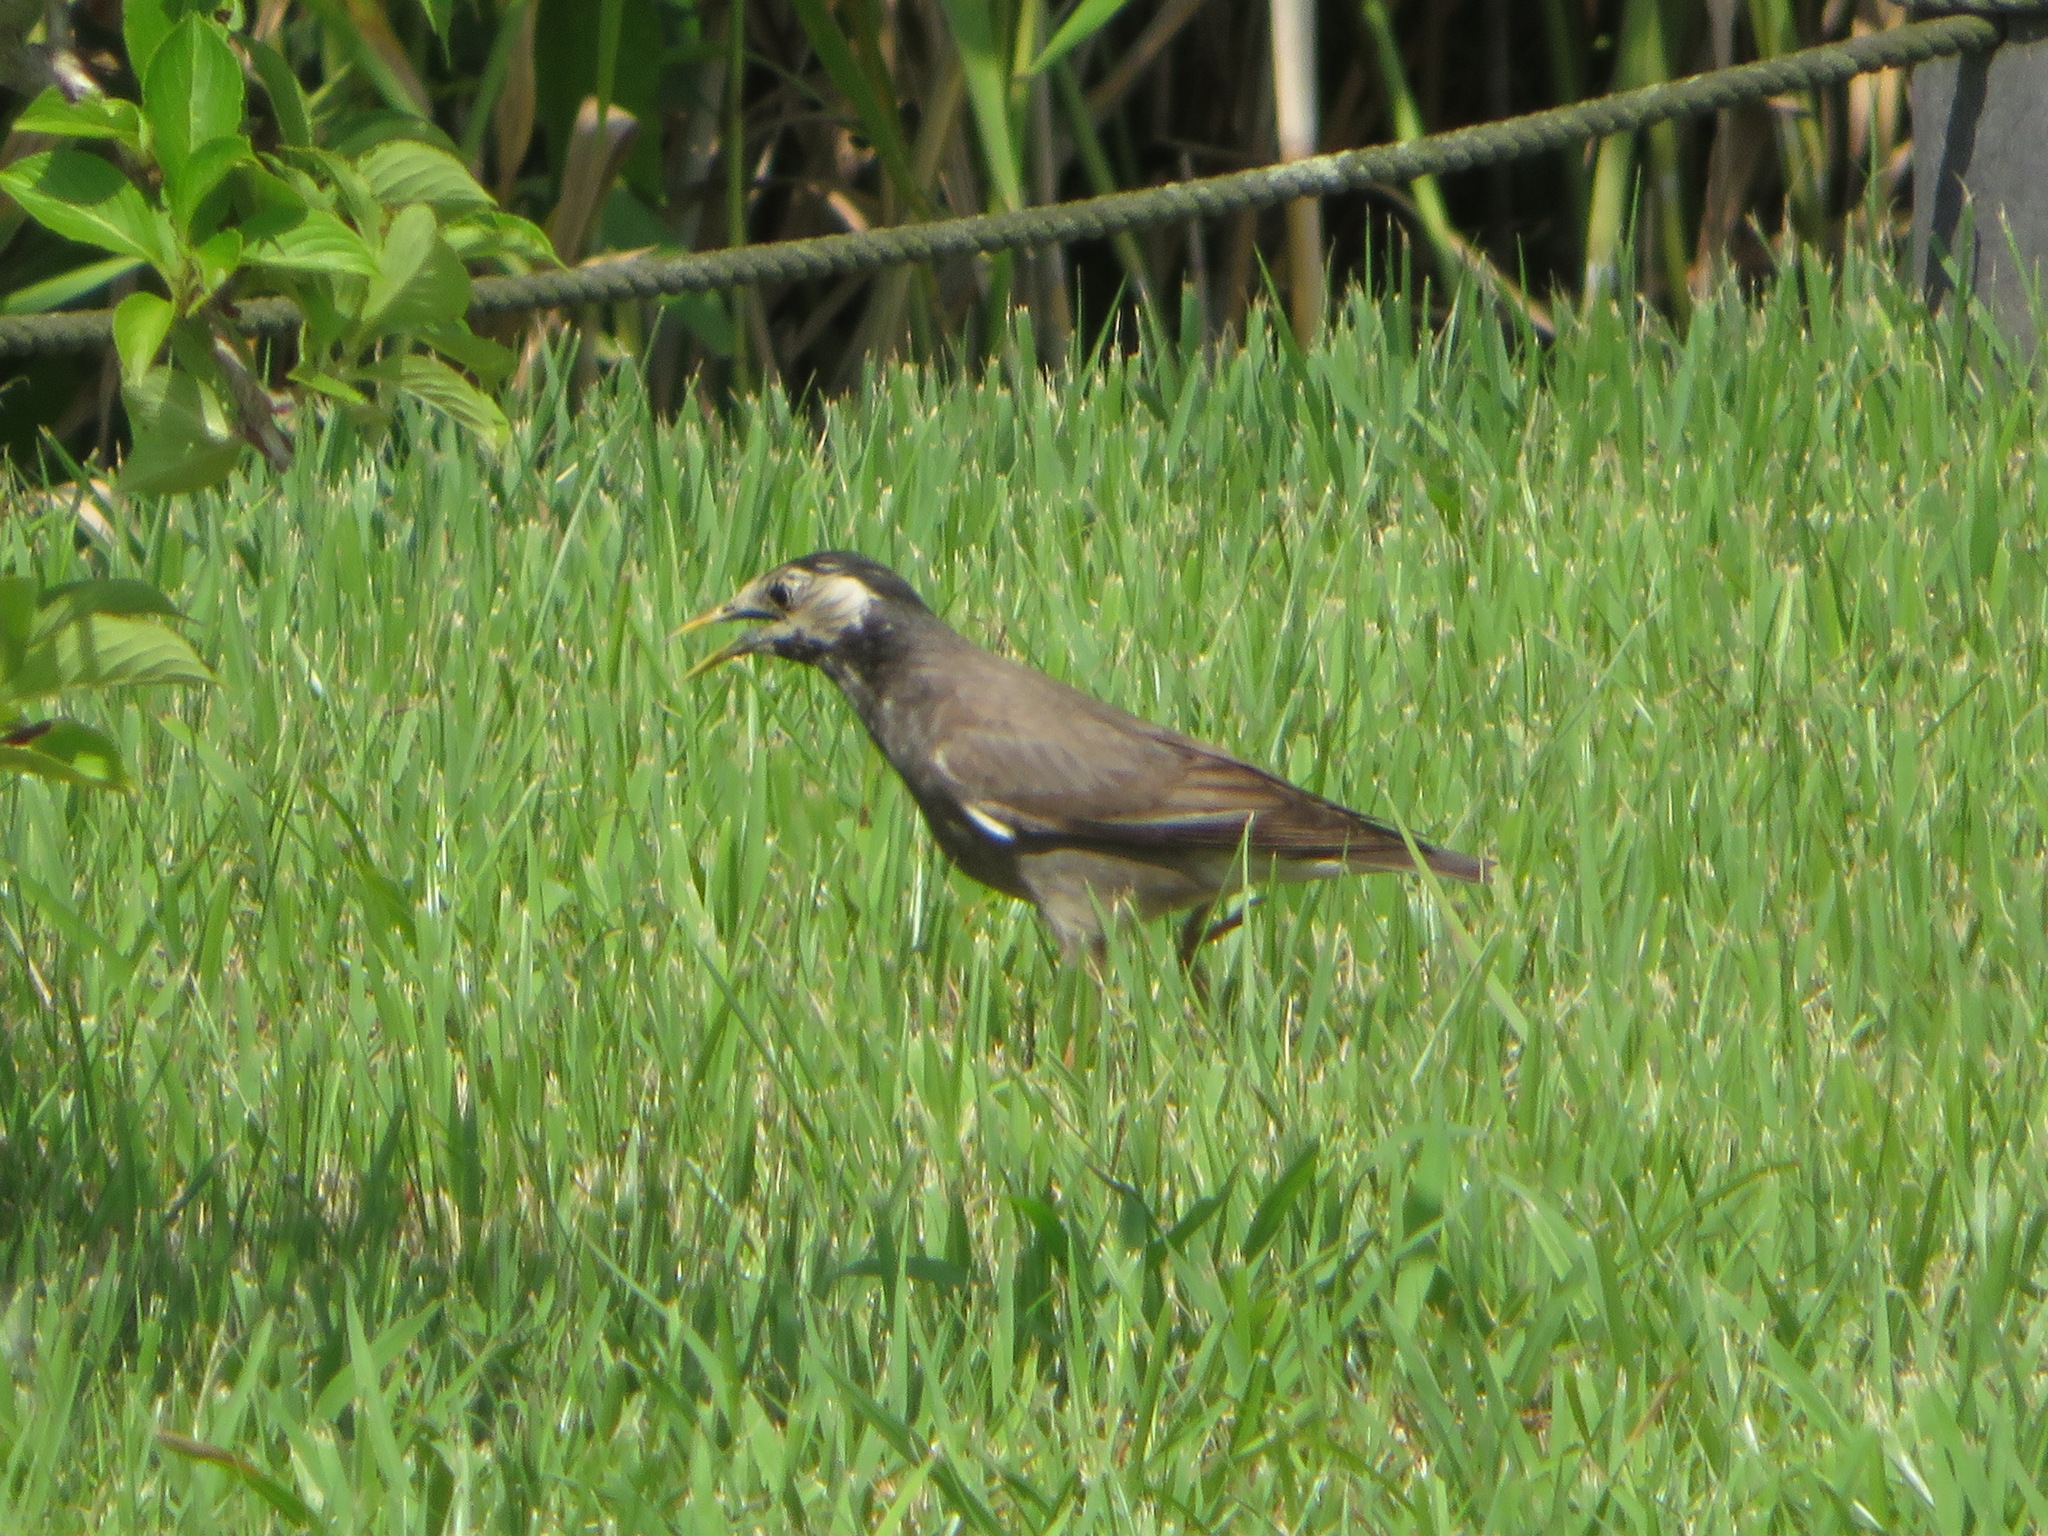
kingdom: Animalia
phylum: Chordata
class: Aves
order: Passeriformes
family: Sturnidae
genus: Spodiopsar
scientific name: Spodiopsar cineraceus
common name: White-cheeked starling
